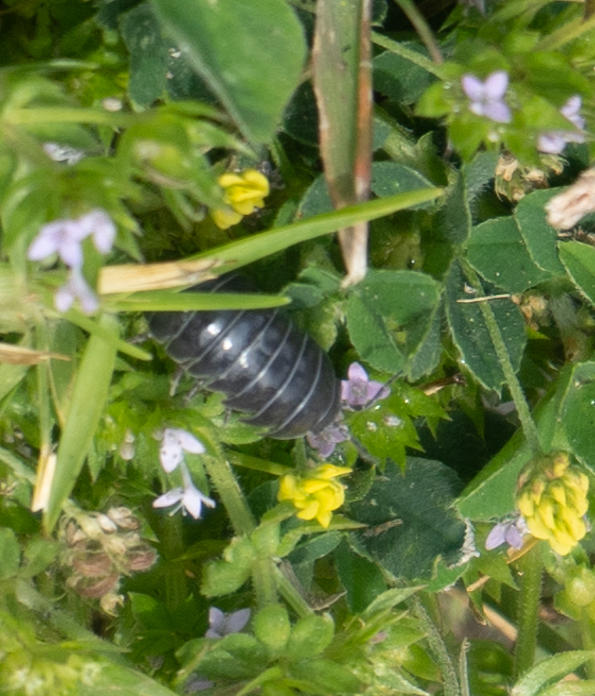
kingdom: Animalia
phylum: Arthropoda
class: Malacostraca
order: Isopoda
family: Armadillidiidae
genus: Armadillidium
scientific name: Armadillidium vulgare
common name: Common pill woodlouse
